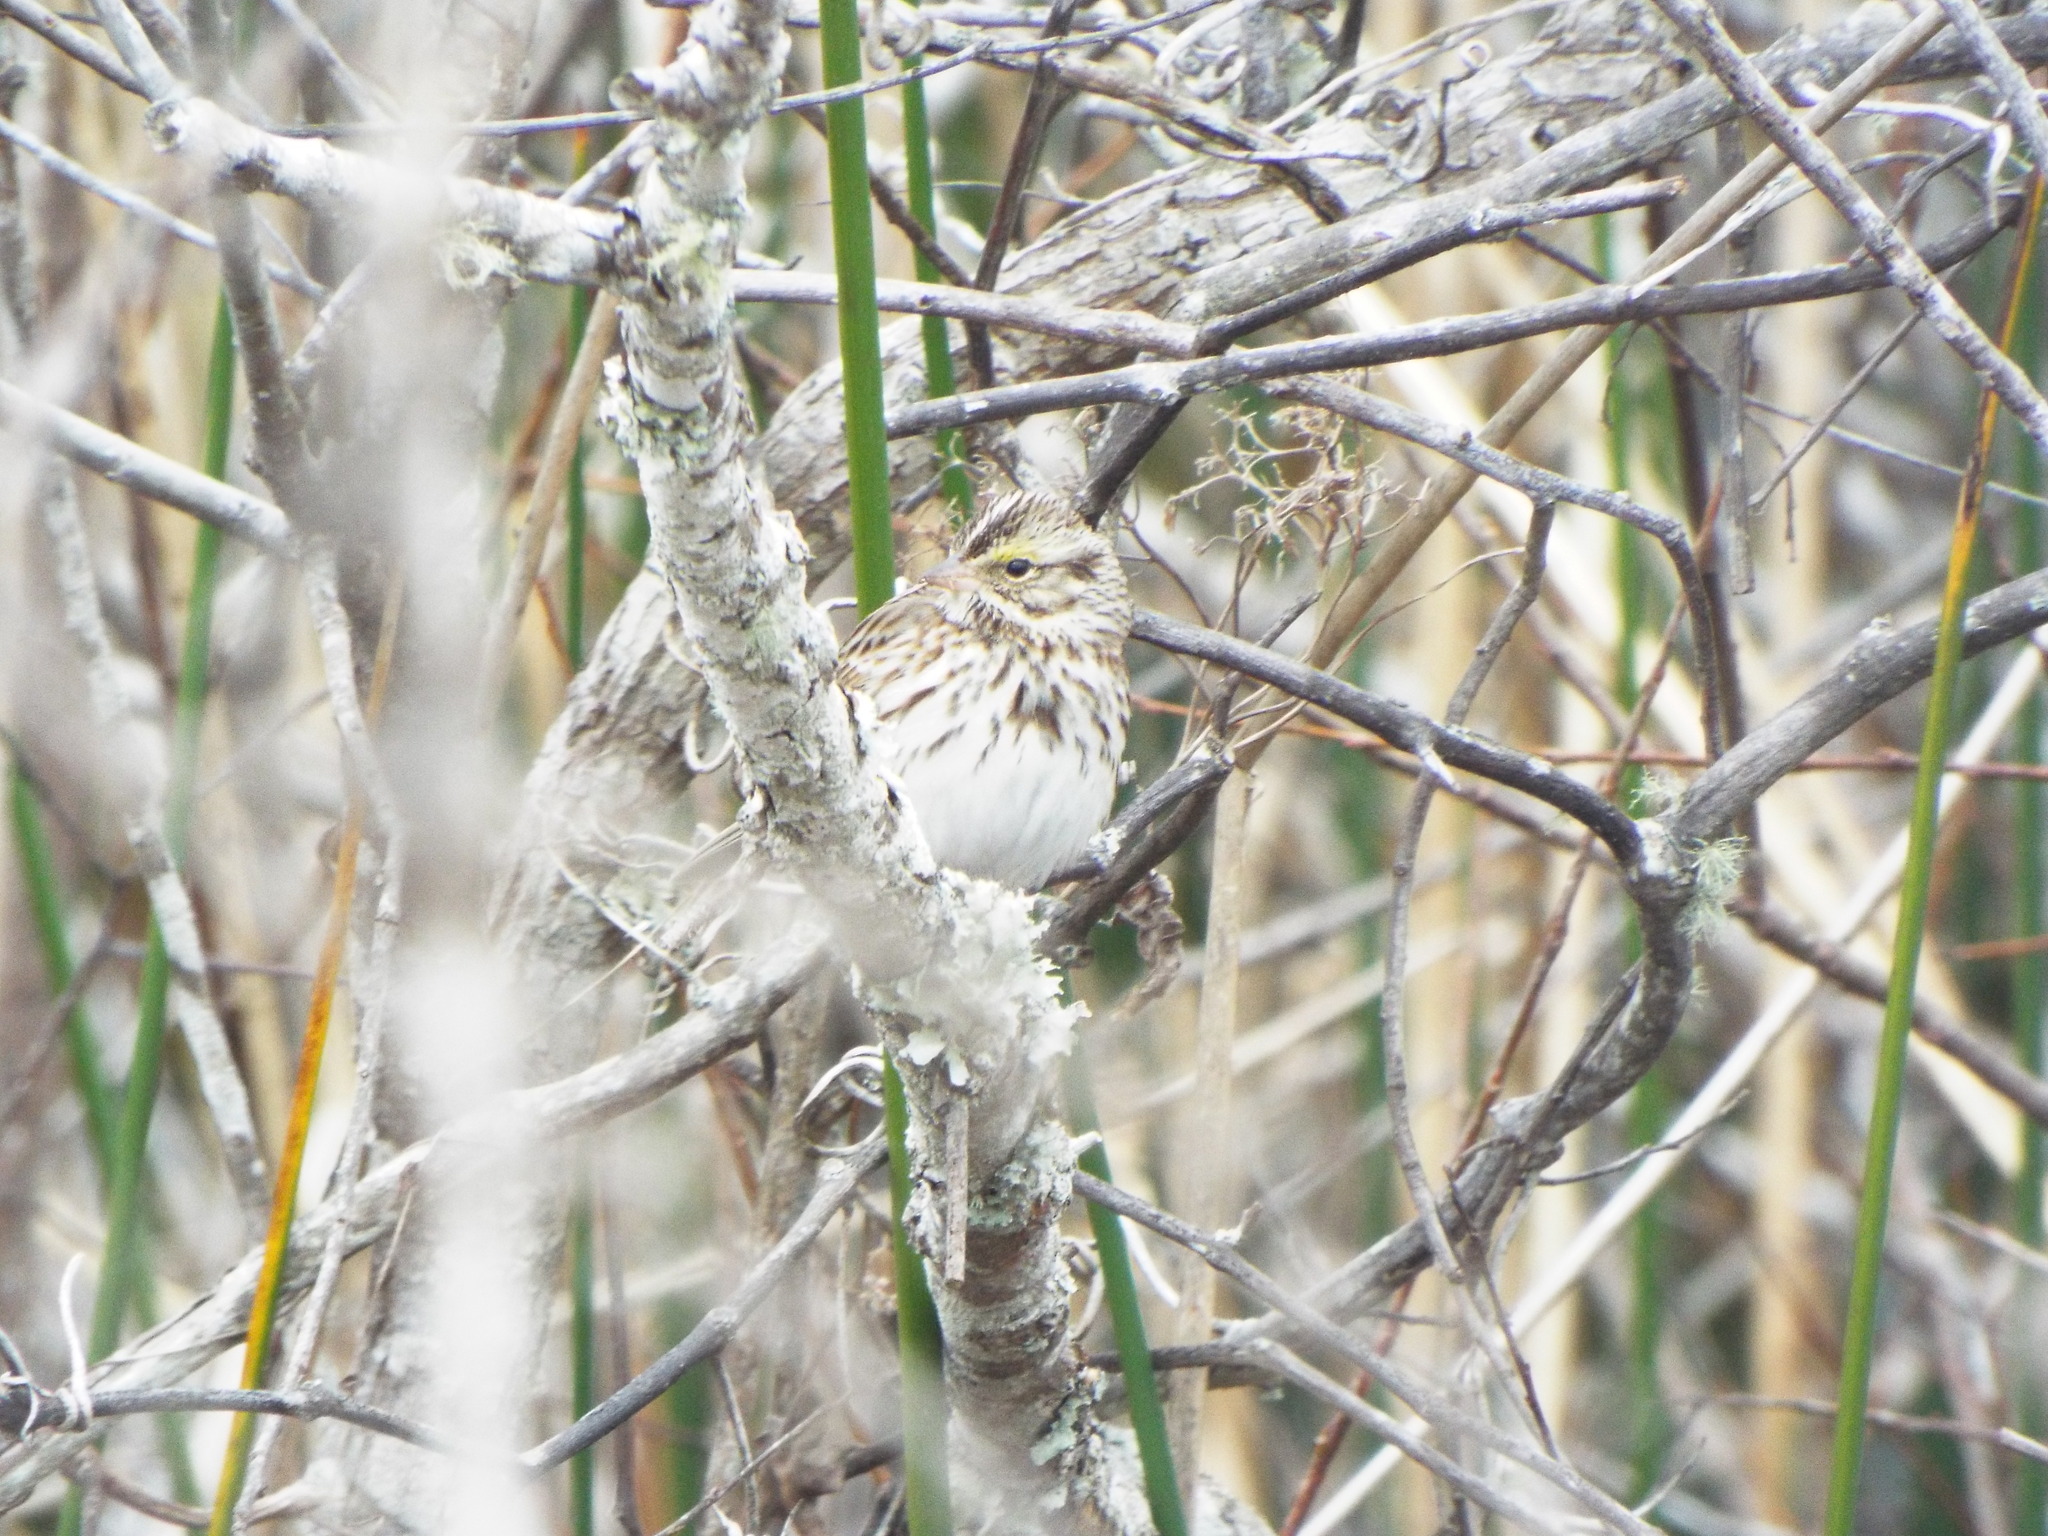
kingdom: Animalia
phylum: Chordata
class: Aves
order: Passeriformes
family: Passerellidae
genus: Passerculus
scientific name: Passerculus sandwichensis
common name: Savannah sparrow
